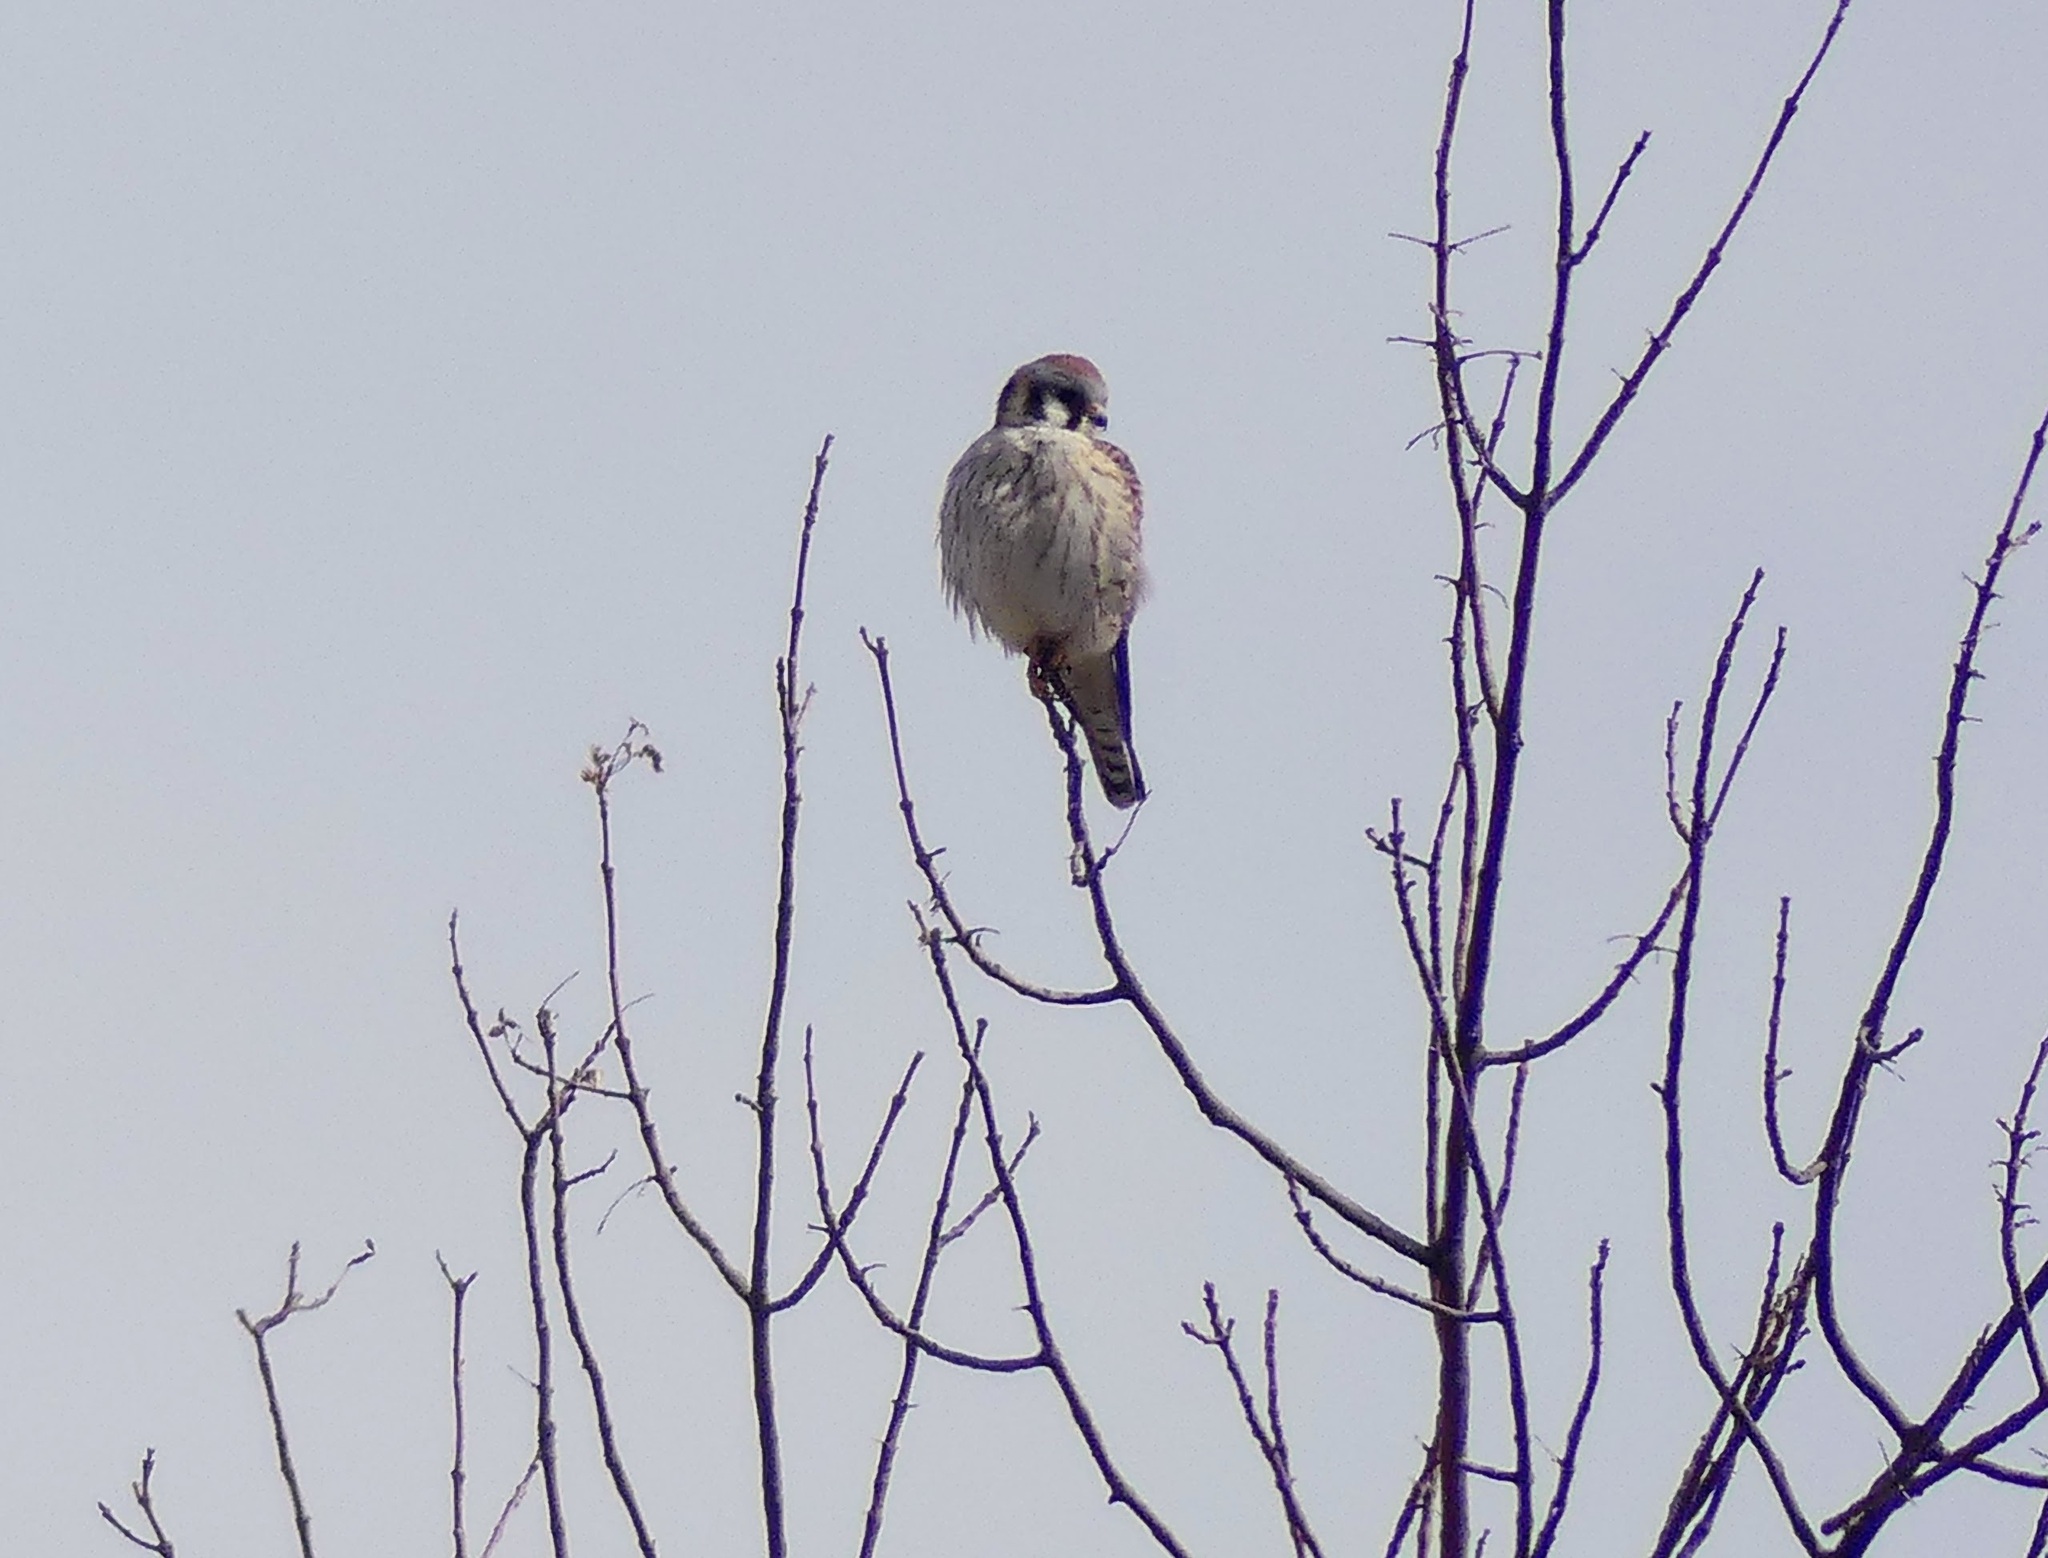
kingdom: Animalia
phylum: Chordata
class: Aves
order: Falconiformes
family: Falconidae
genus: Falco
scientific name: Falco sparverius
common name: American kestrel
